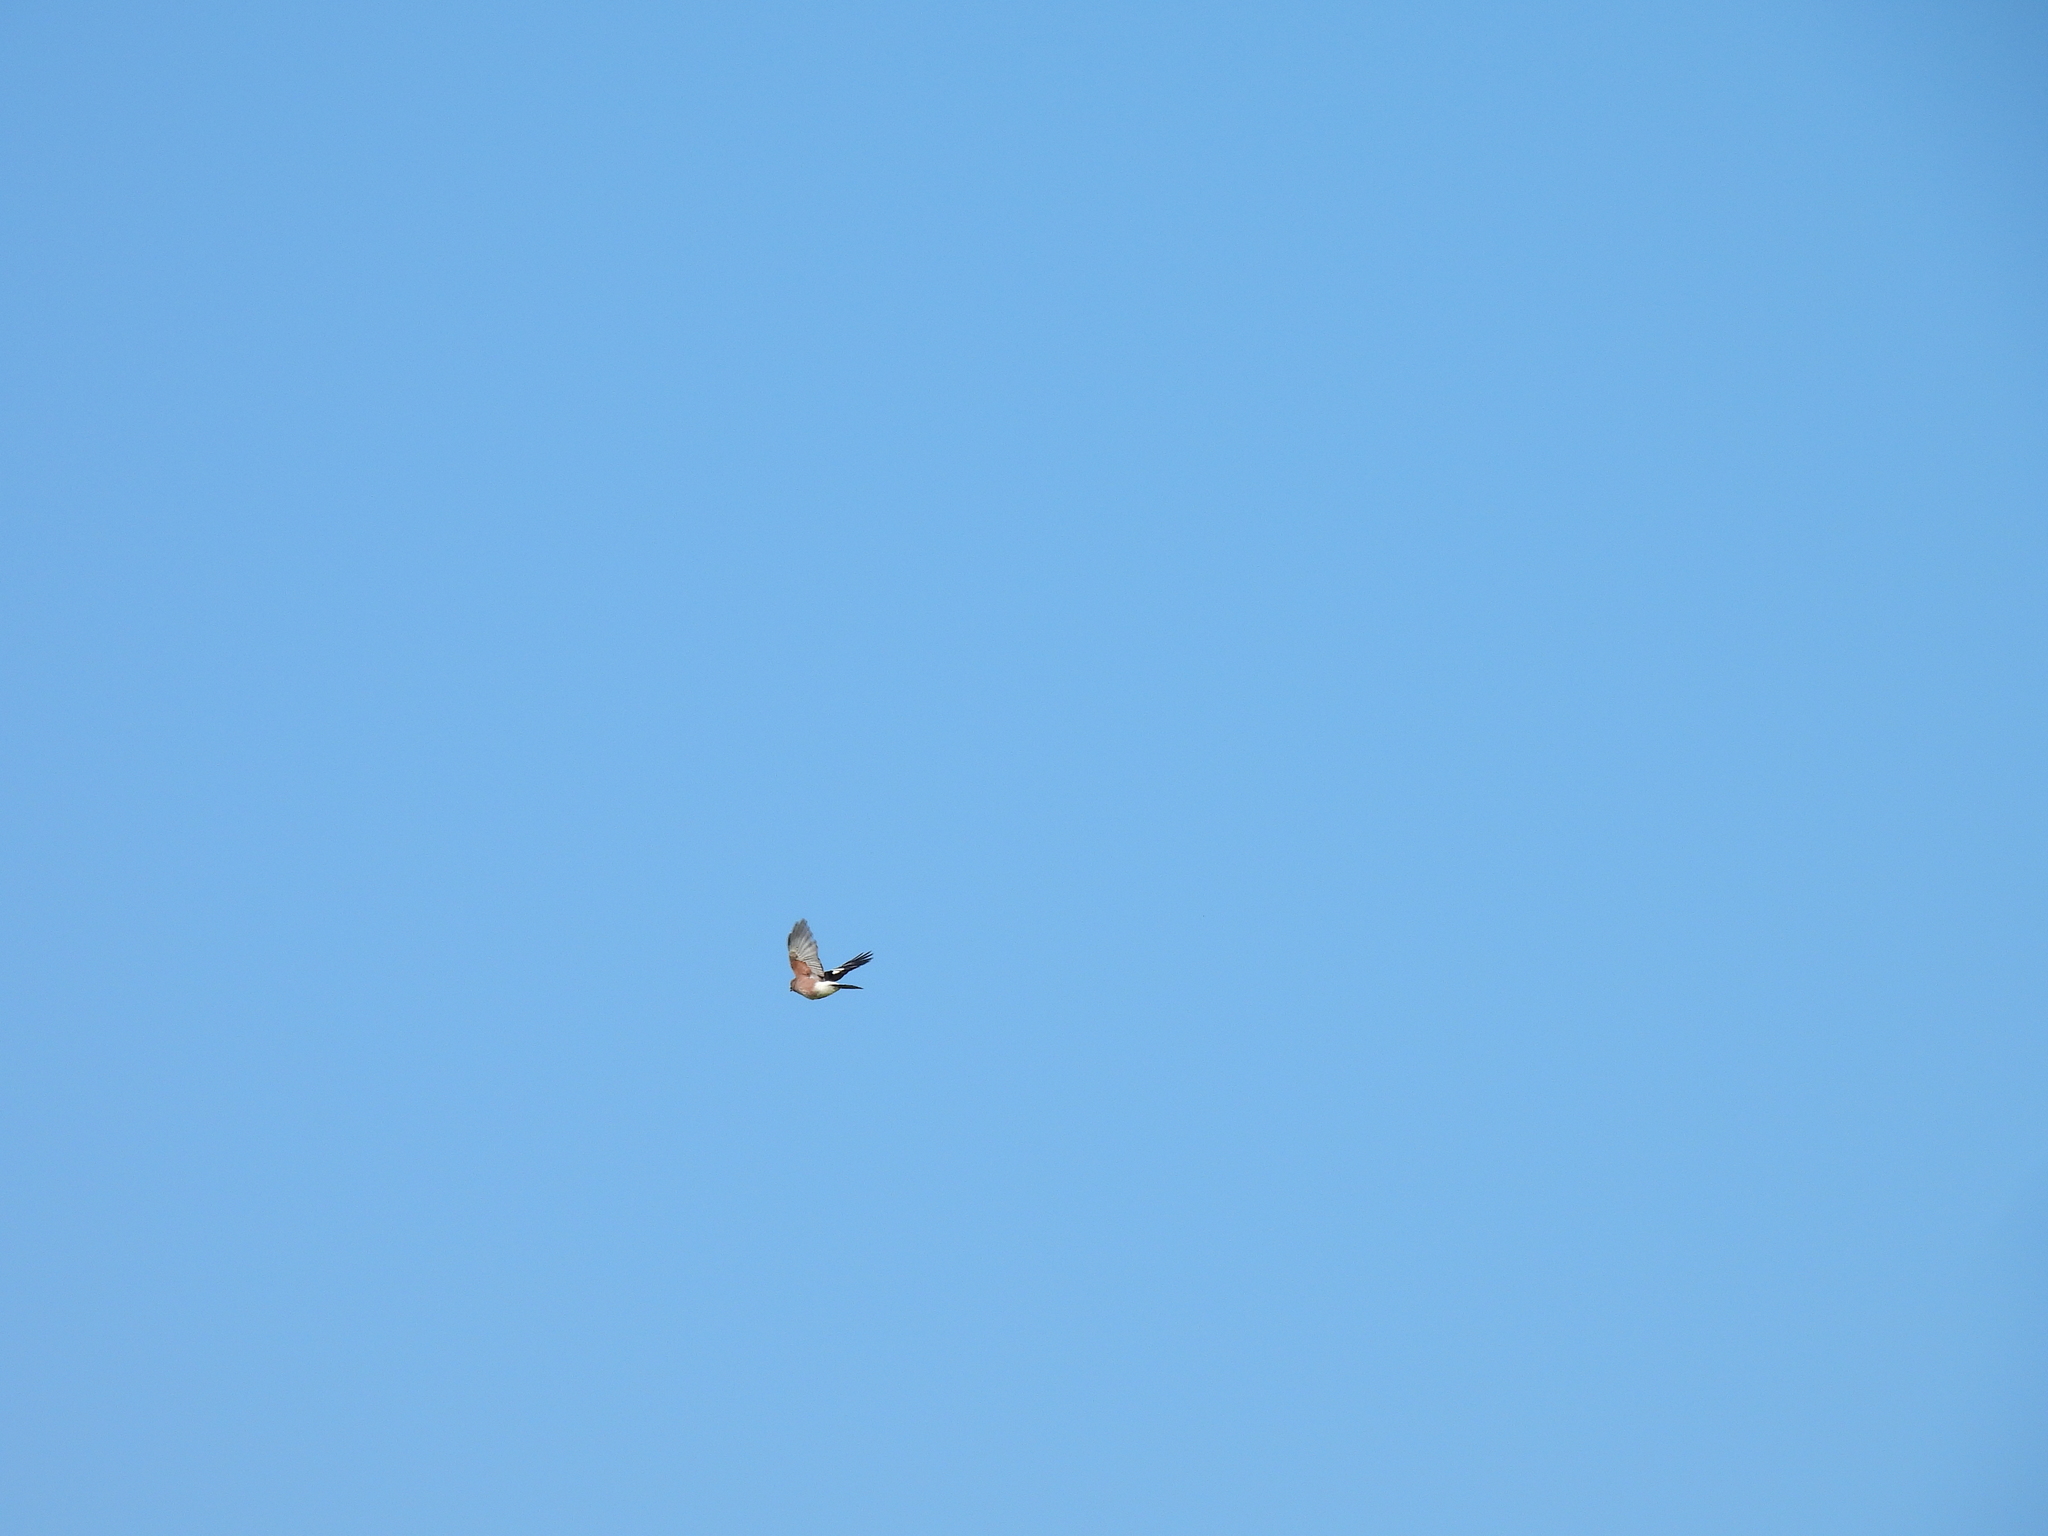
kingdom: Animalia
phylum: Chordata
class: Aves
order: Passeriformes
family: Corvidae
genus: Garrulus
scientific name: Garrulus glandarius
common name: Eurasian jay
